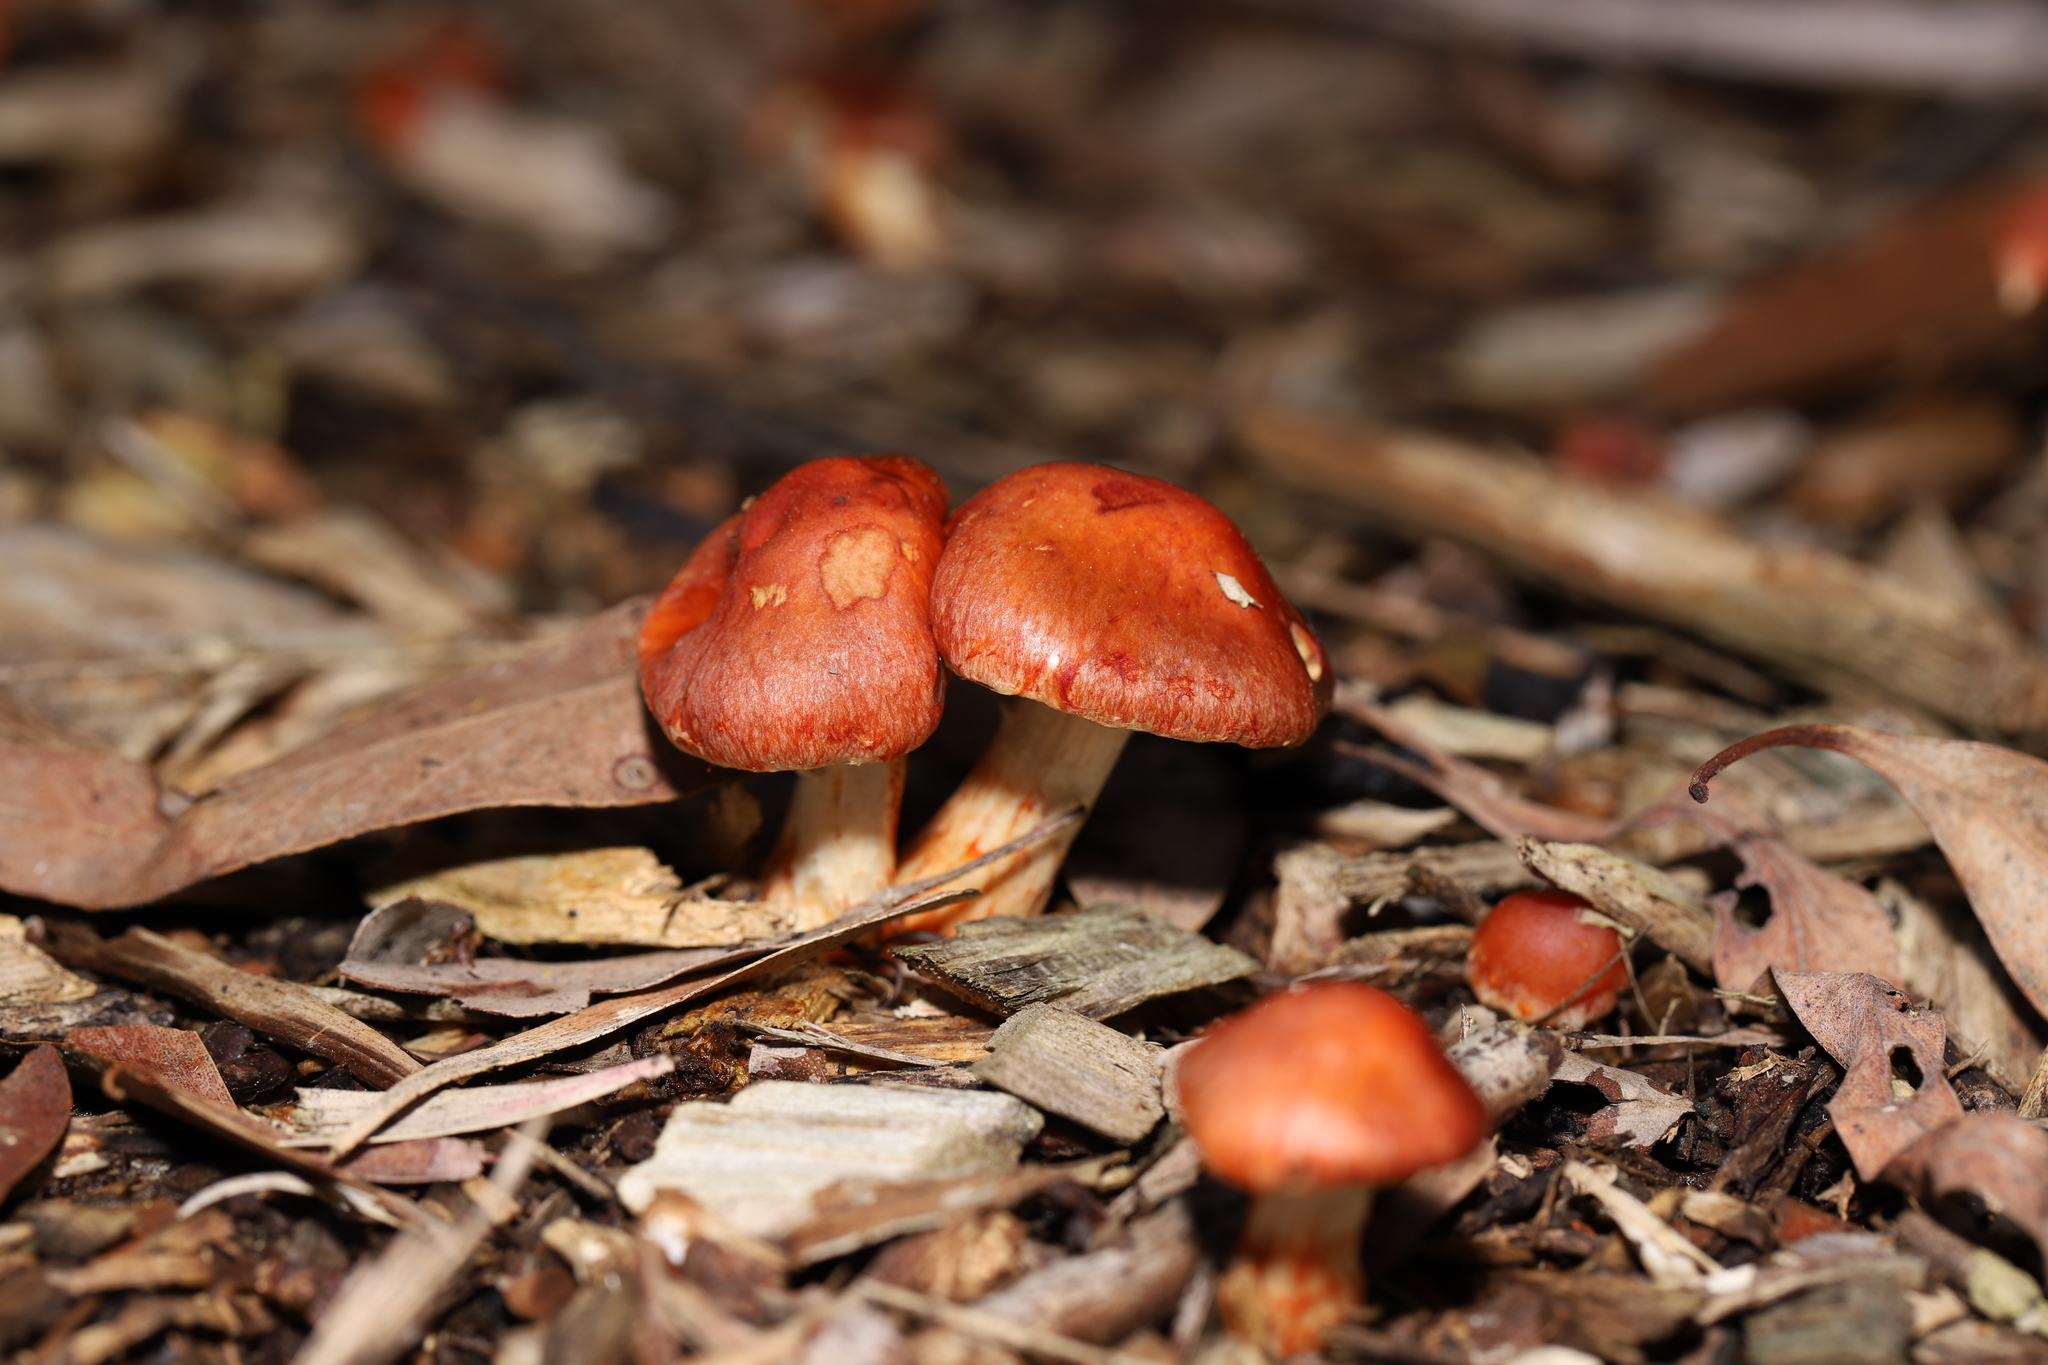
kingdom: Fungi
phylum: Basidiomycota
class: Agaricomycetes
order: Agaricales
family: Strophariaceae
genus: Leratiomyces
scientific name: Leratiomyces ceres
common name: Redlead roundhead
